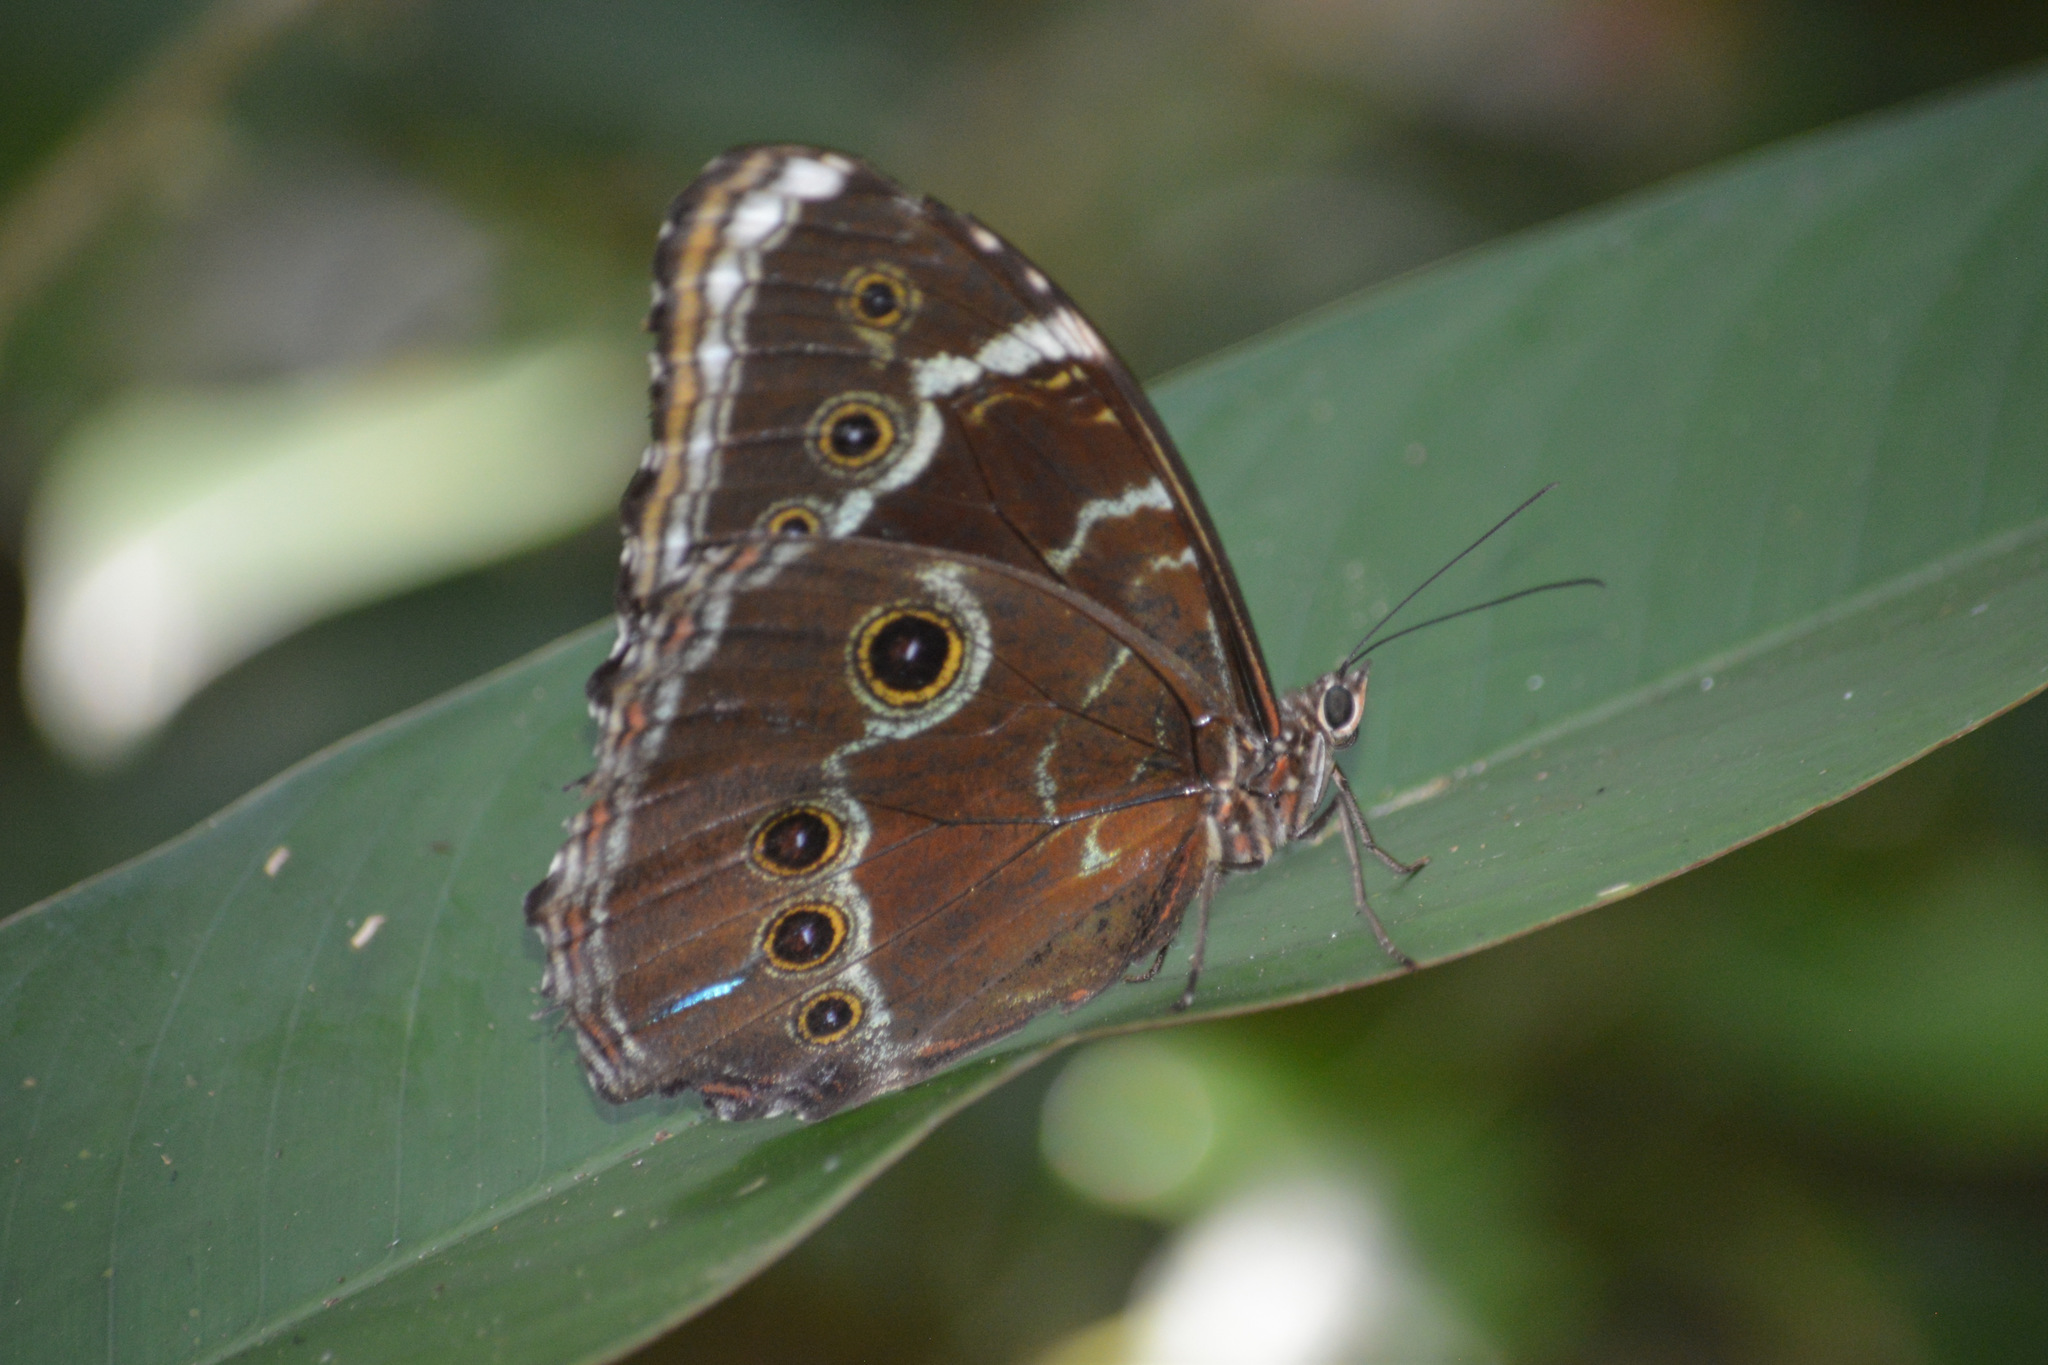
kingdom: Animalia
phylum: Arthropoda
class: Insecta
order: Lepidoptera
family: Nymphalidae
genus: Morpho
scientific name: Morpho helenor
